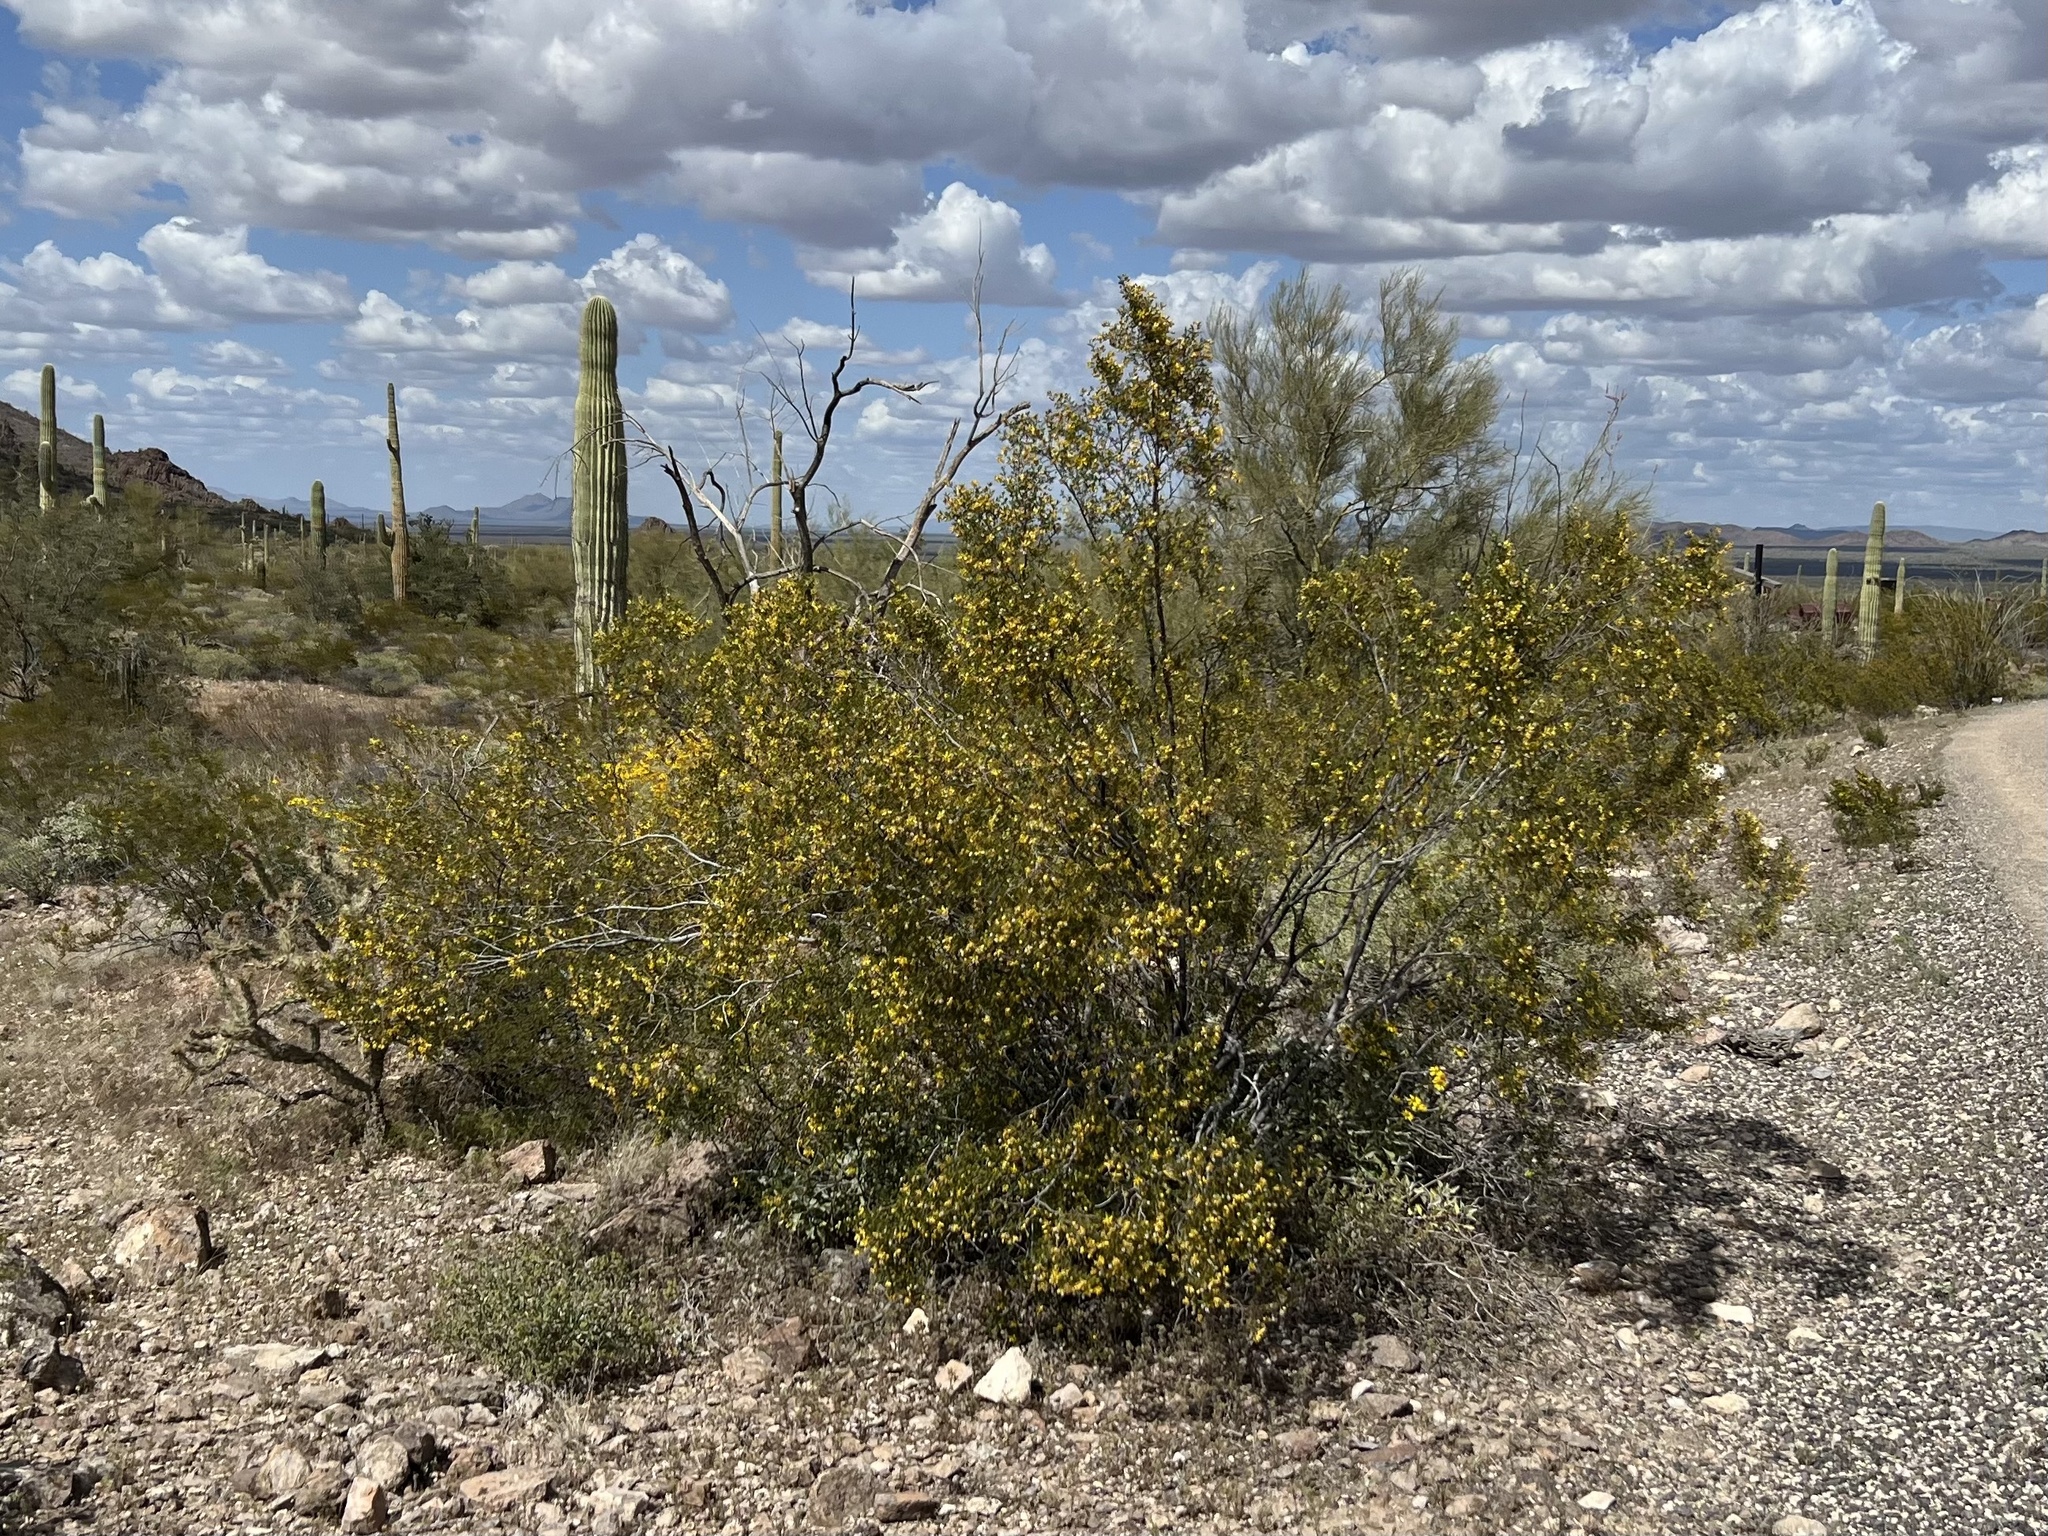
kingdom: Plantae
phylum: Tracheophyta
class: Magnoliopsida
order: Zygophyllales
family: Zygophyllaceae
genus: Larrea
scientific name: Larrea tridentata
